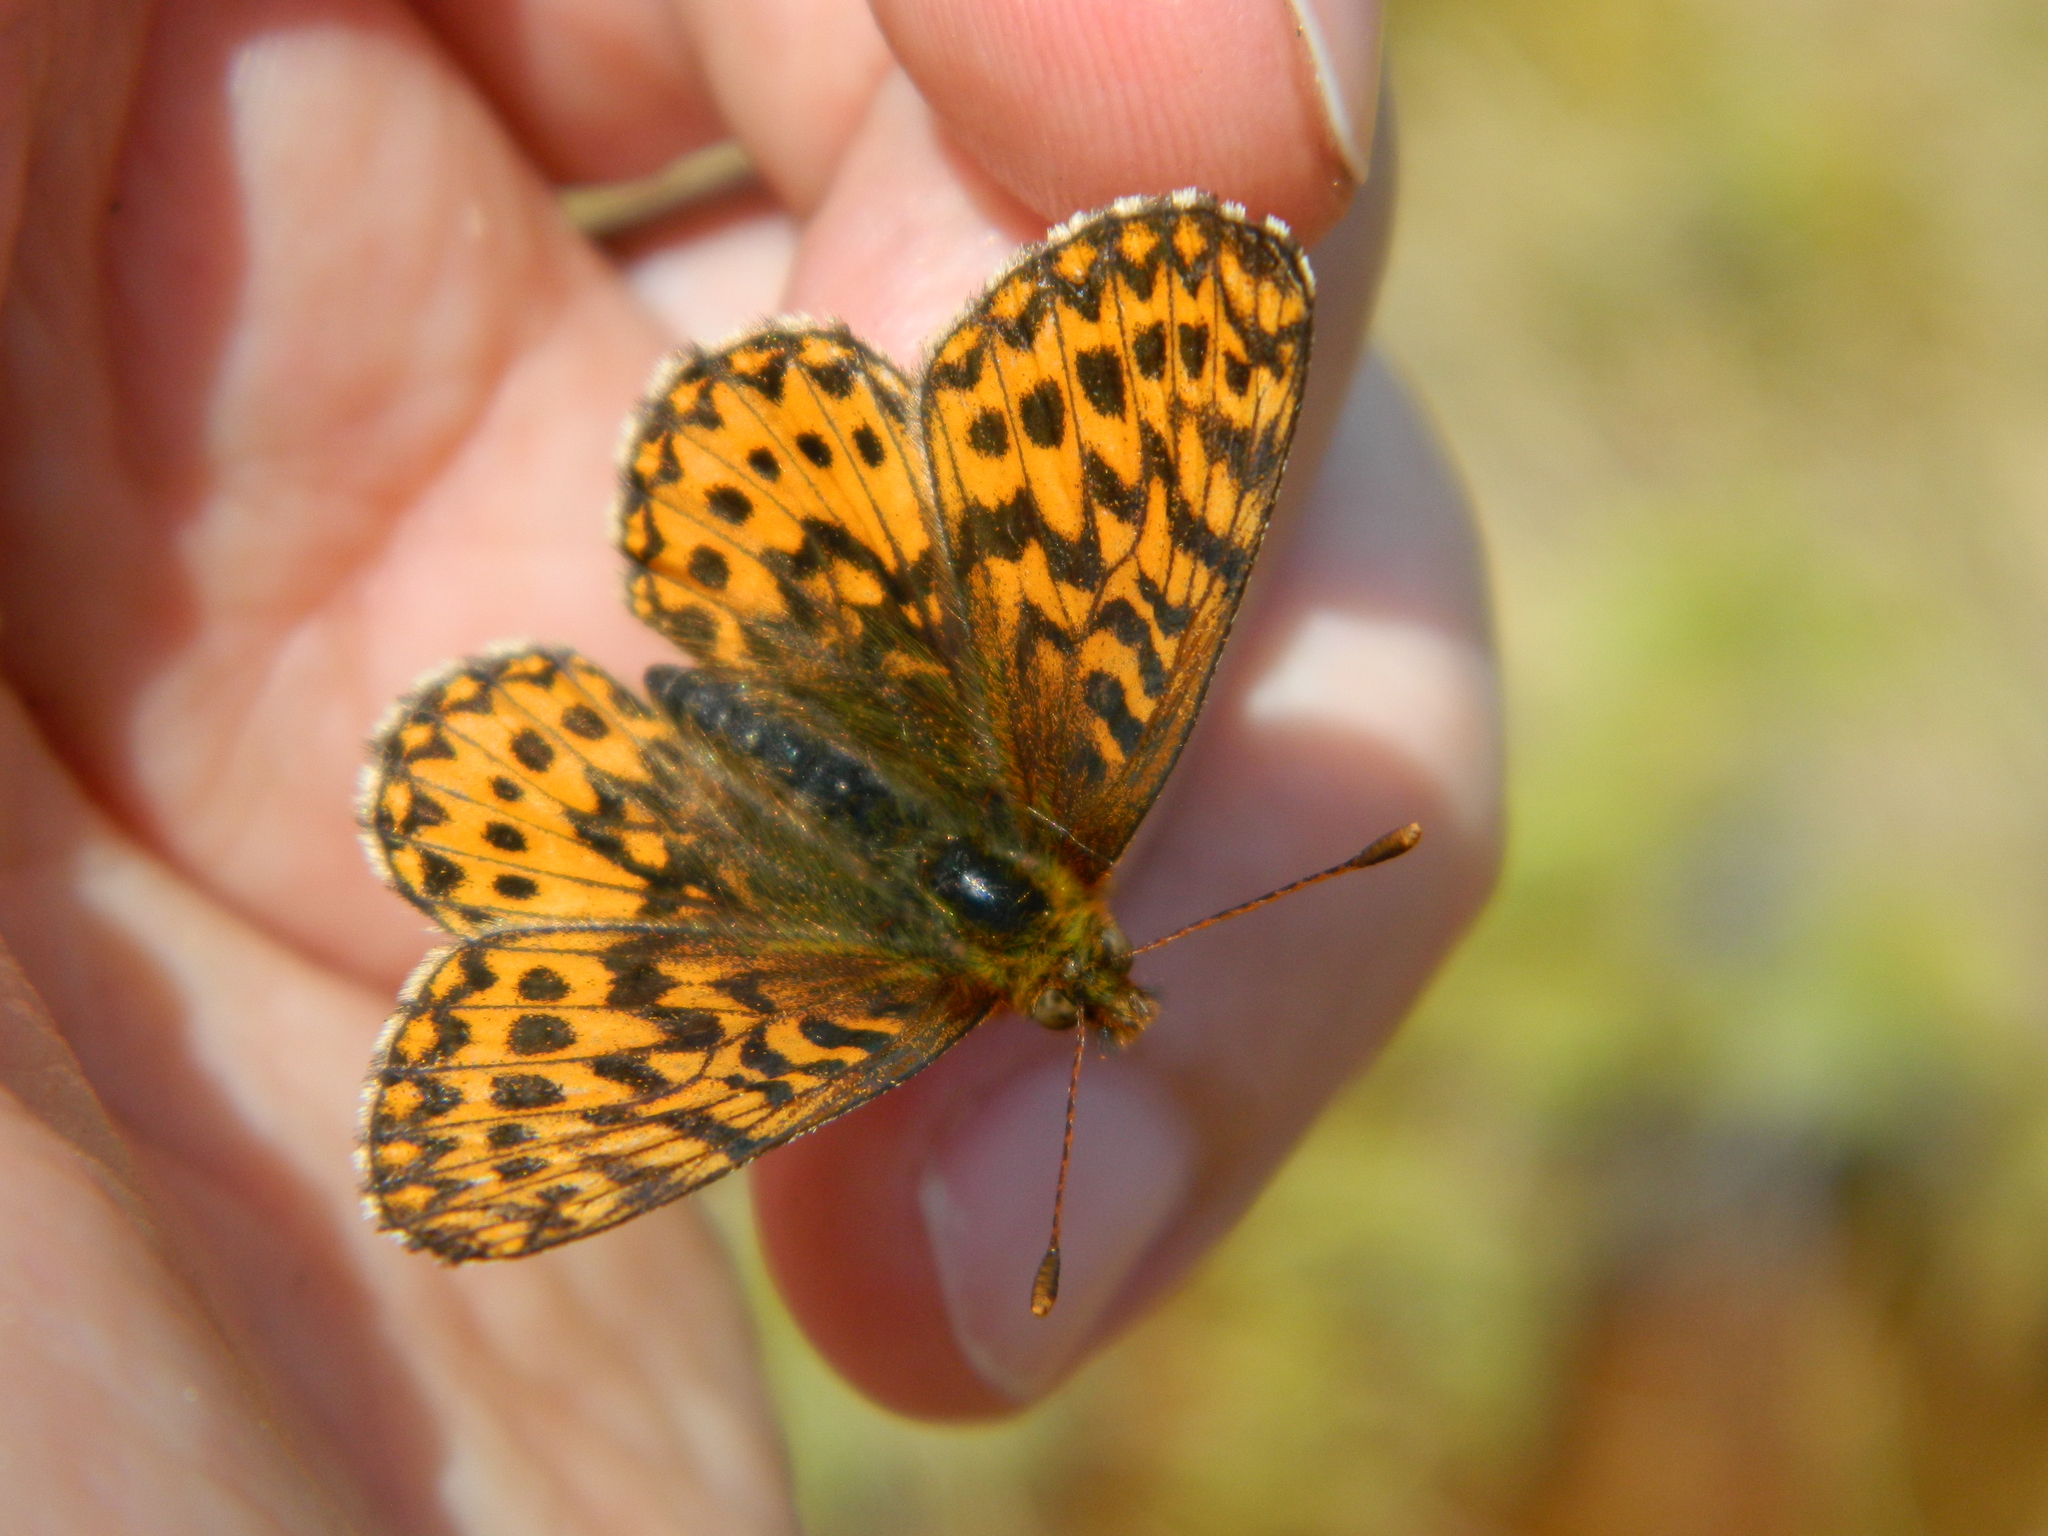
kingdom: Animalia
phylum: Arthropoda
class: Insecta
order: Lepidoptera
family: Nymphalidae
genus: Boloria
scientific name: Boloria freija
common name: Freija fritillary
